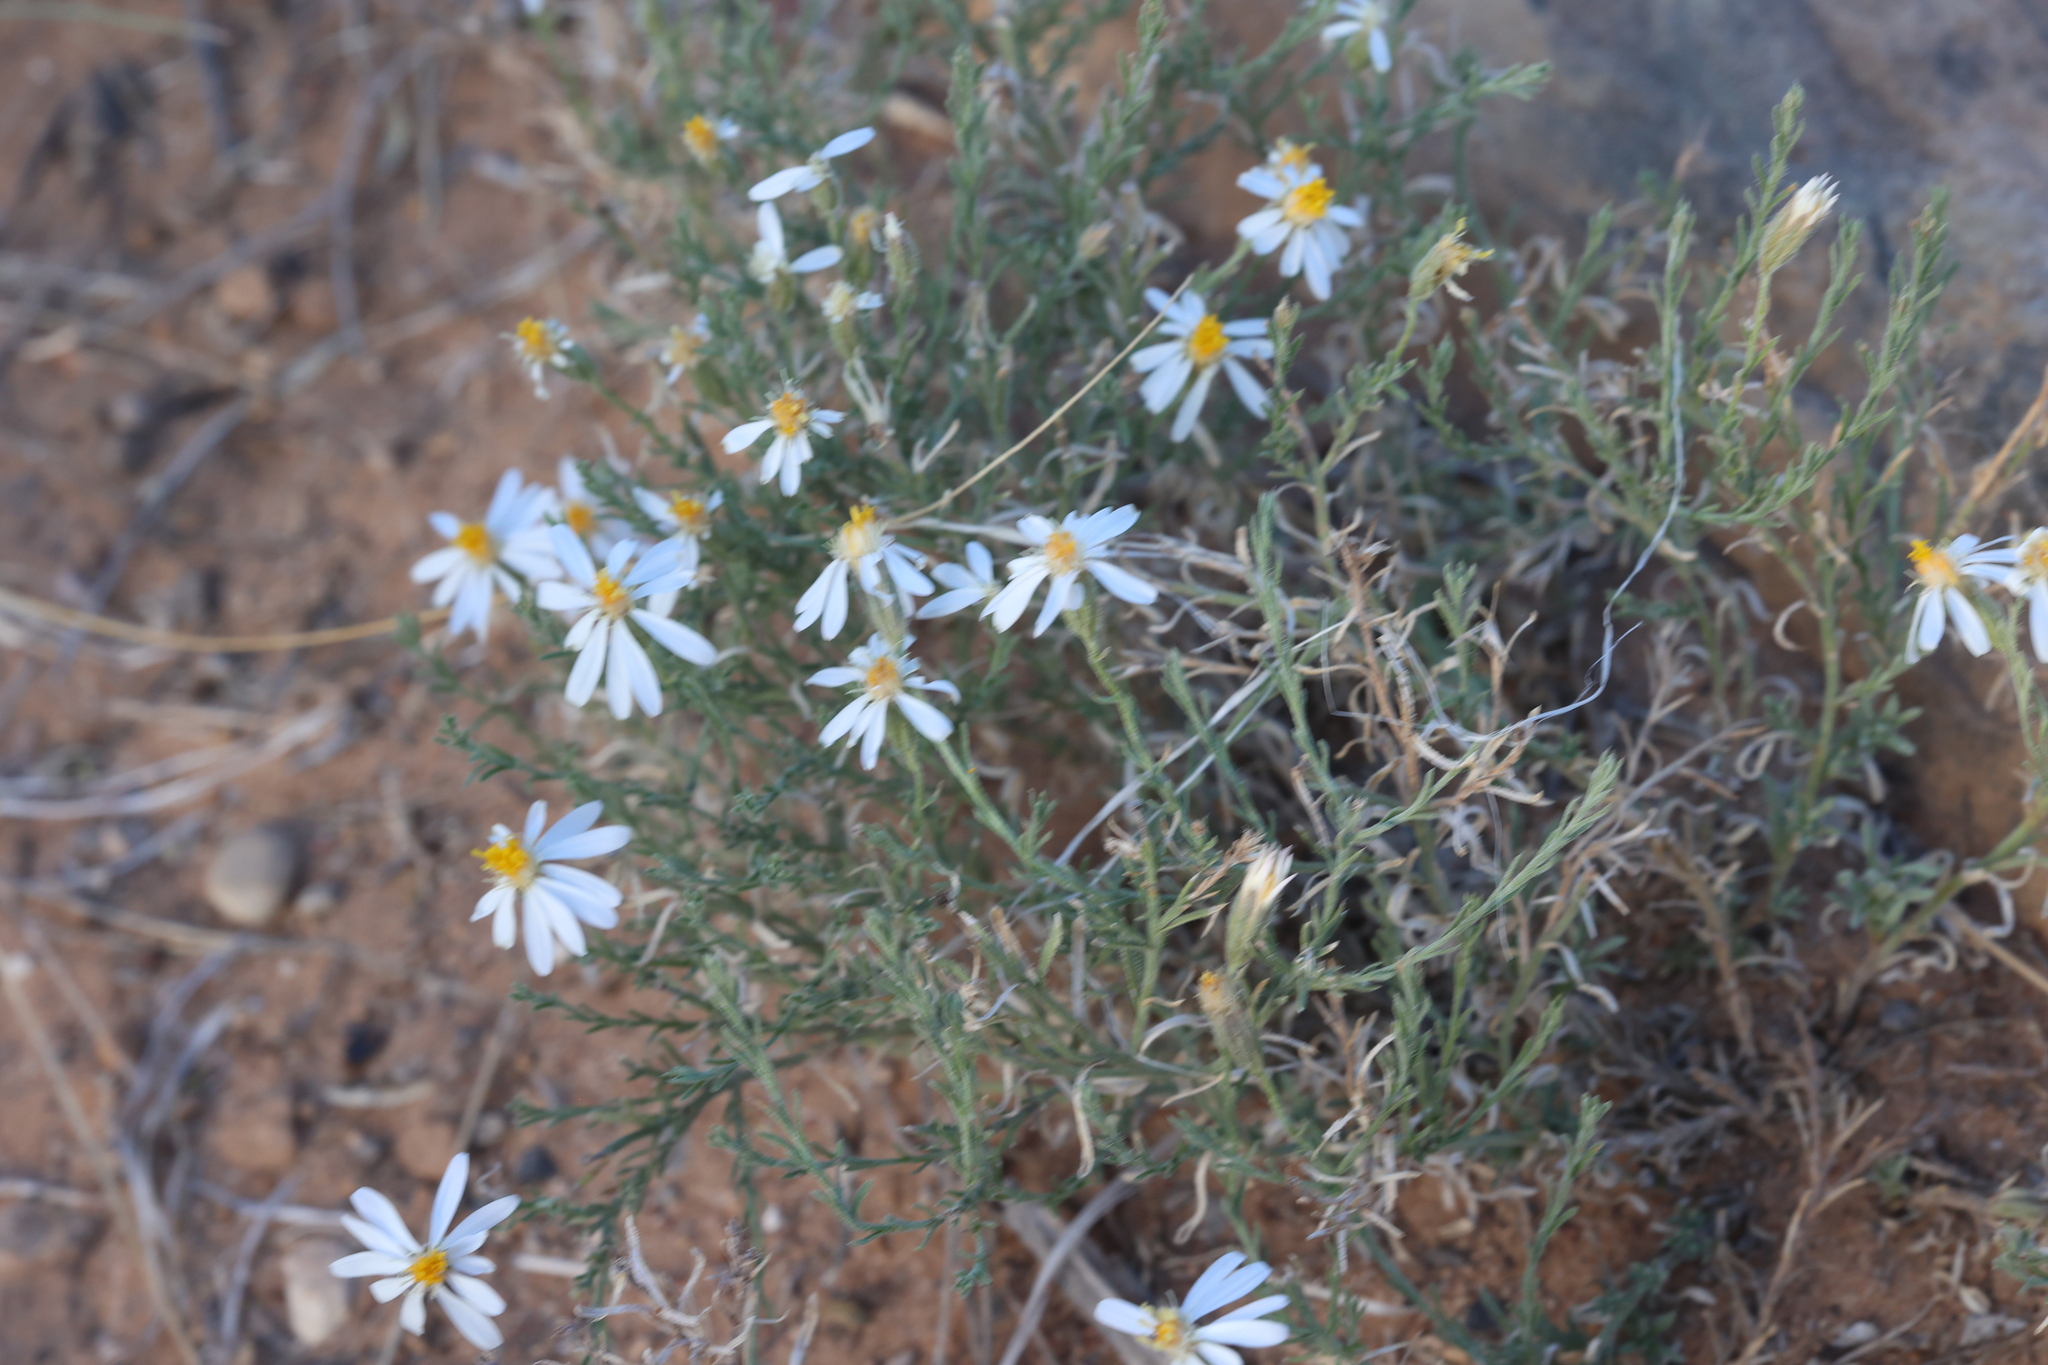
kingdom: Plantae
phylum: Tracheophyta
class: Magnoliopsida
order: Asterales
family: Asteraceae
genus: Chaetopappa
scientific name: Chaetopappa ericoides
